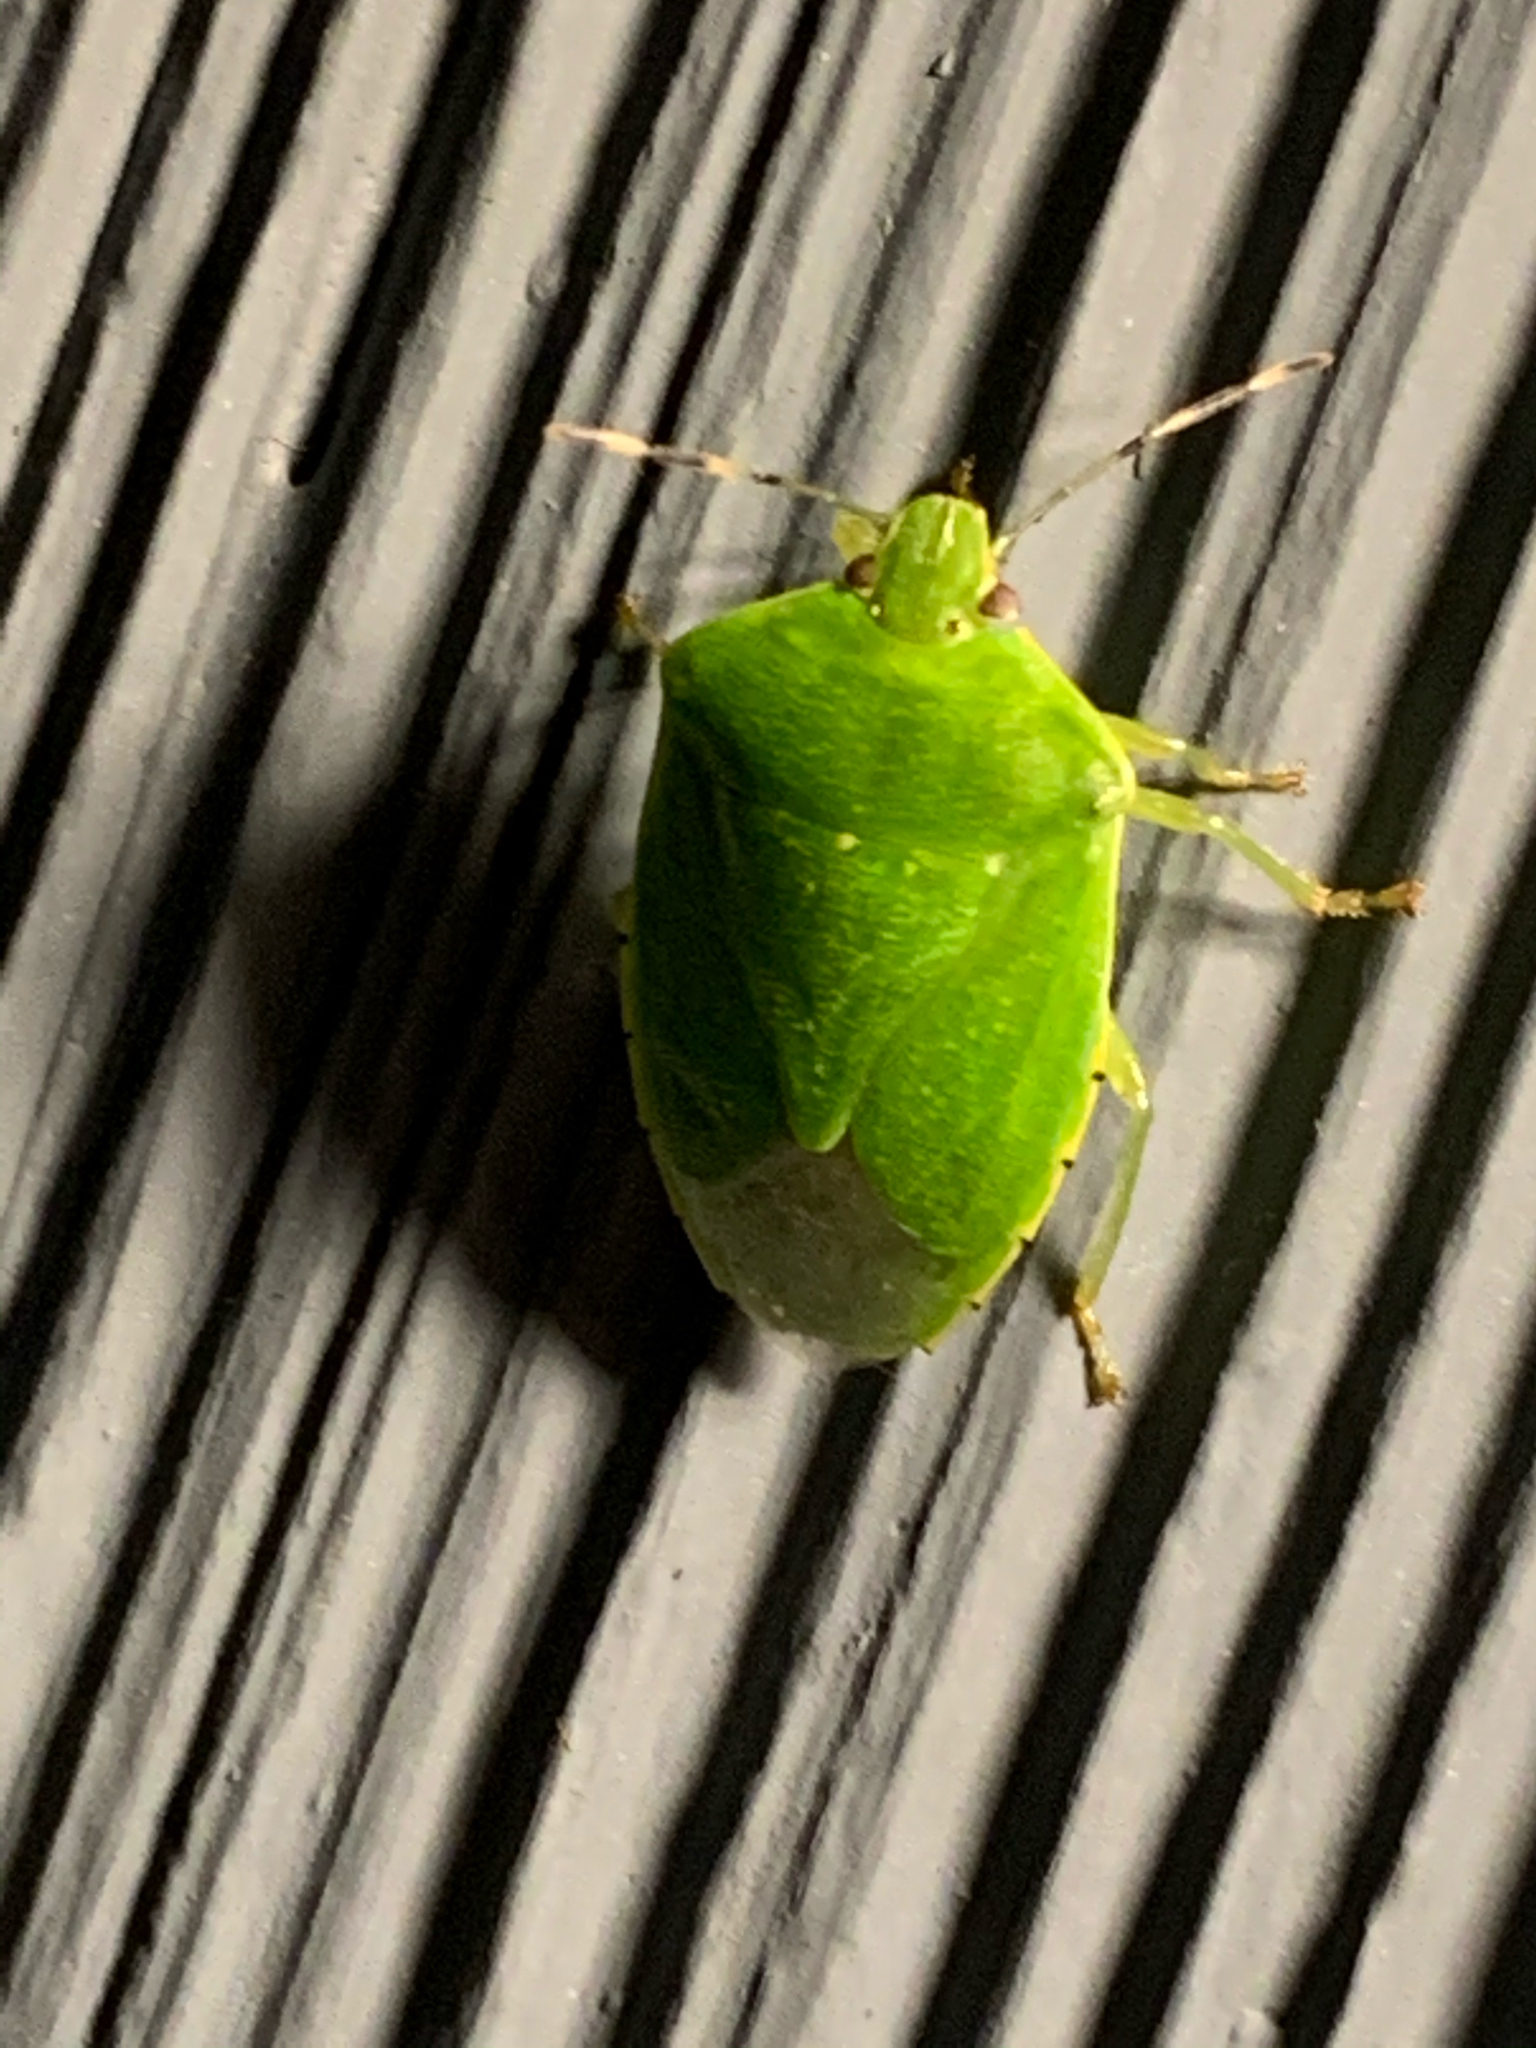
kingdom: Animalia
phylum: Arthropoda
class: Insecta
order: Hemiptera
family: Pentatomidae
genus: Chinavia
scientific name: Chinavia hilaris
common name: Green stink bug
